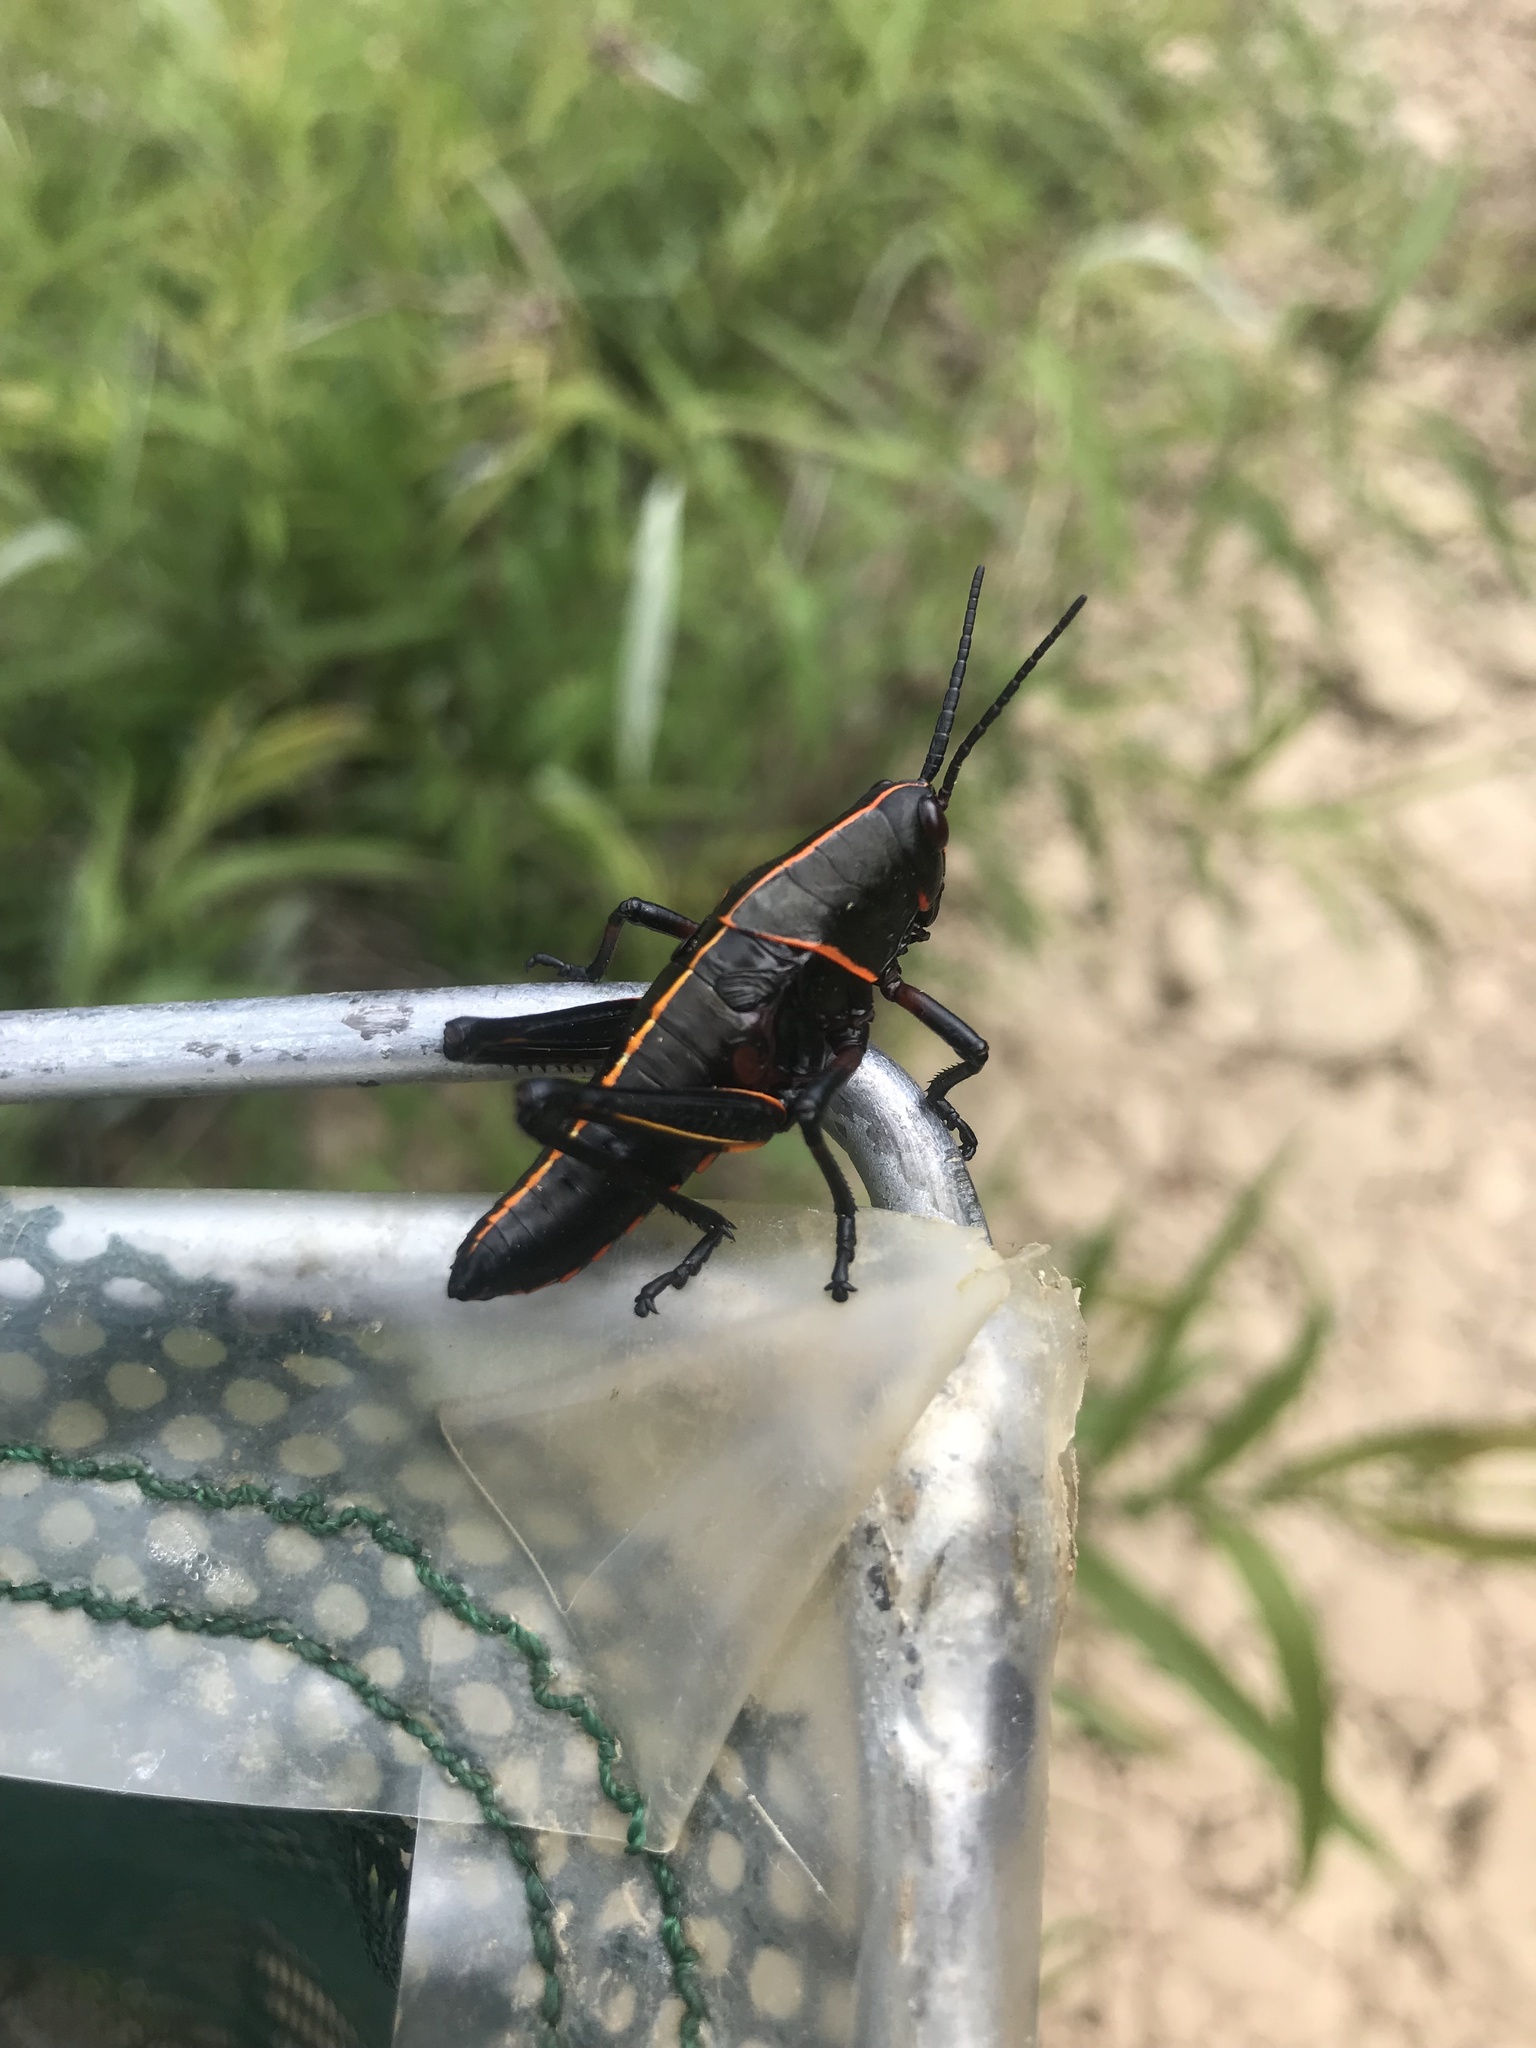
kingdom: Animalia
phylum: Arthropoda
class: Insecta
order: Orthoptera
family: Romaleidae
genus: Romalea
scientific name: Romalea microptera
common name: Eastern lubber grasshopper
